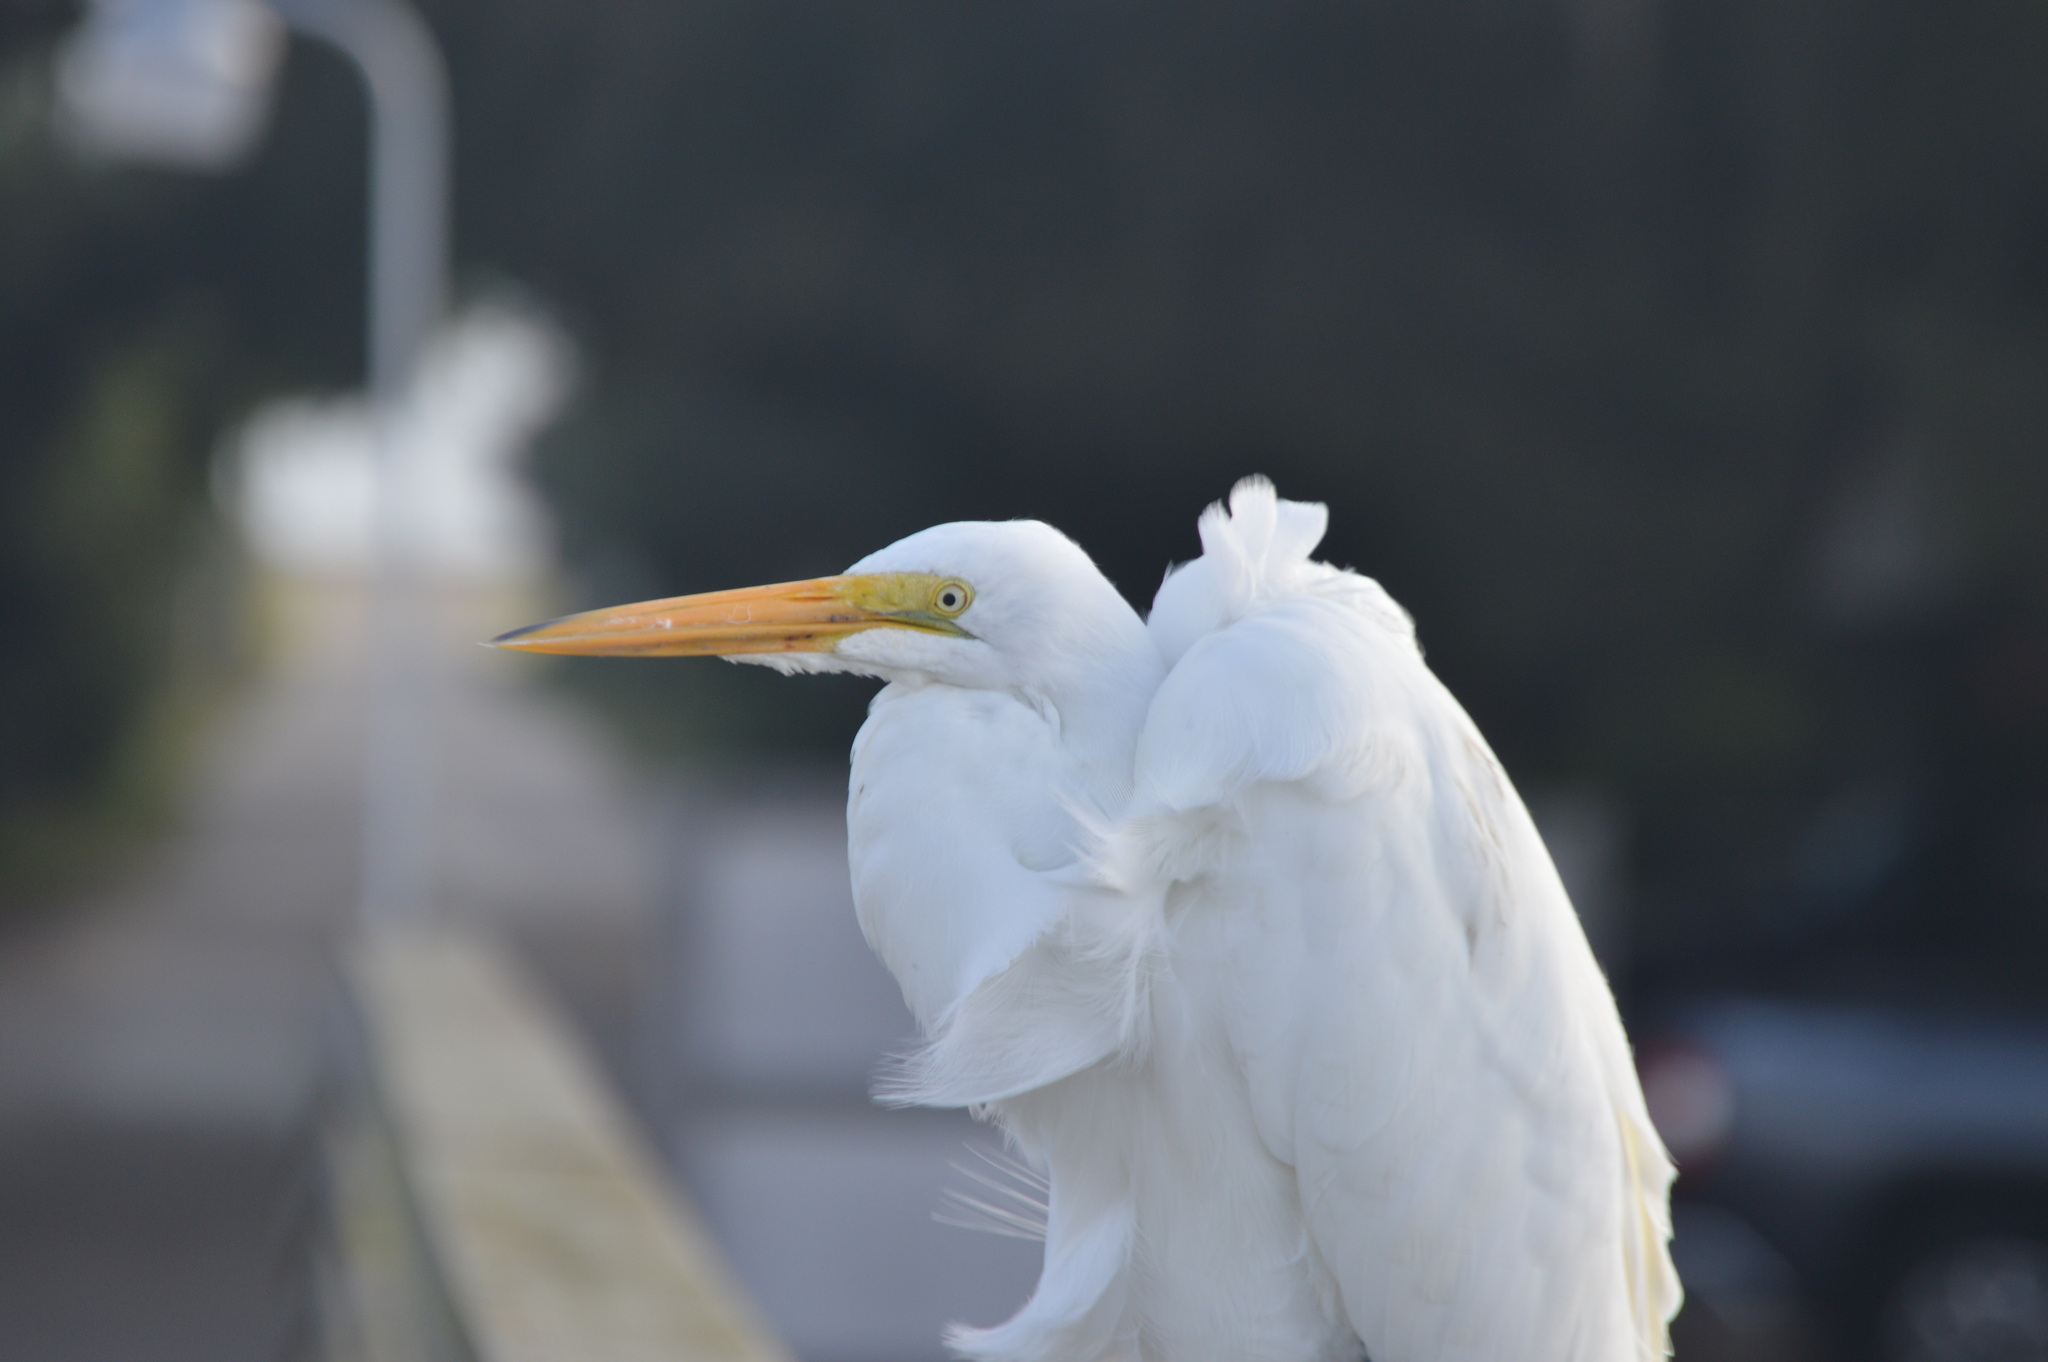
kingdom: Animalia
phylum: Chordata
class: Aves
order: Pelecaniformes
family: Ardeidae
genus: Ardea
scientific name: Ardea alba
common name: Great egret
